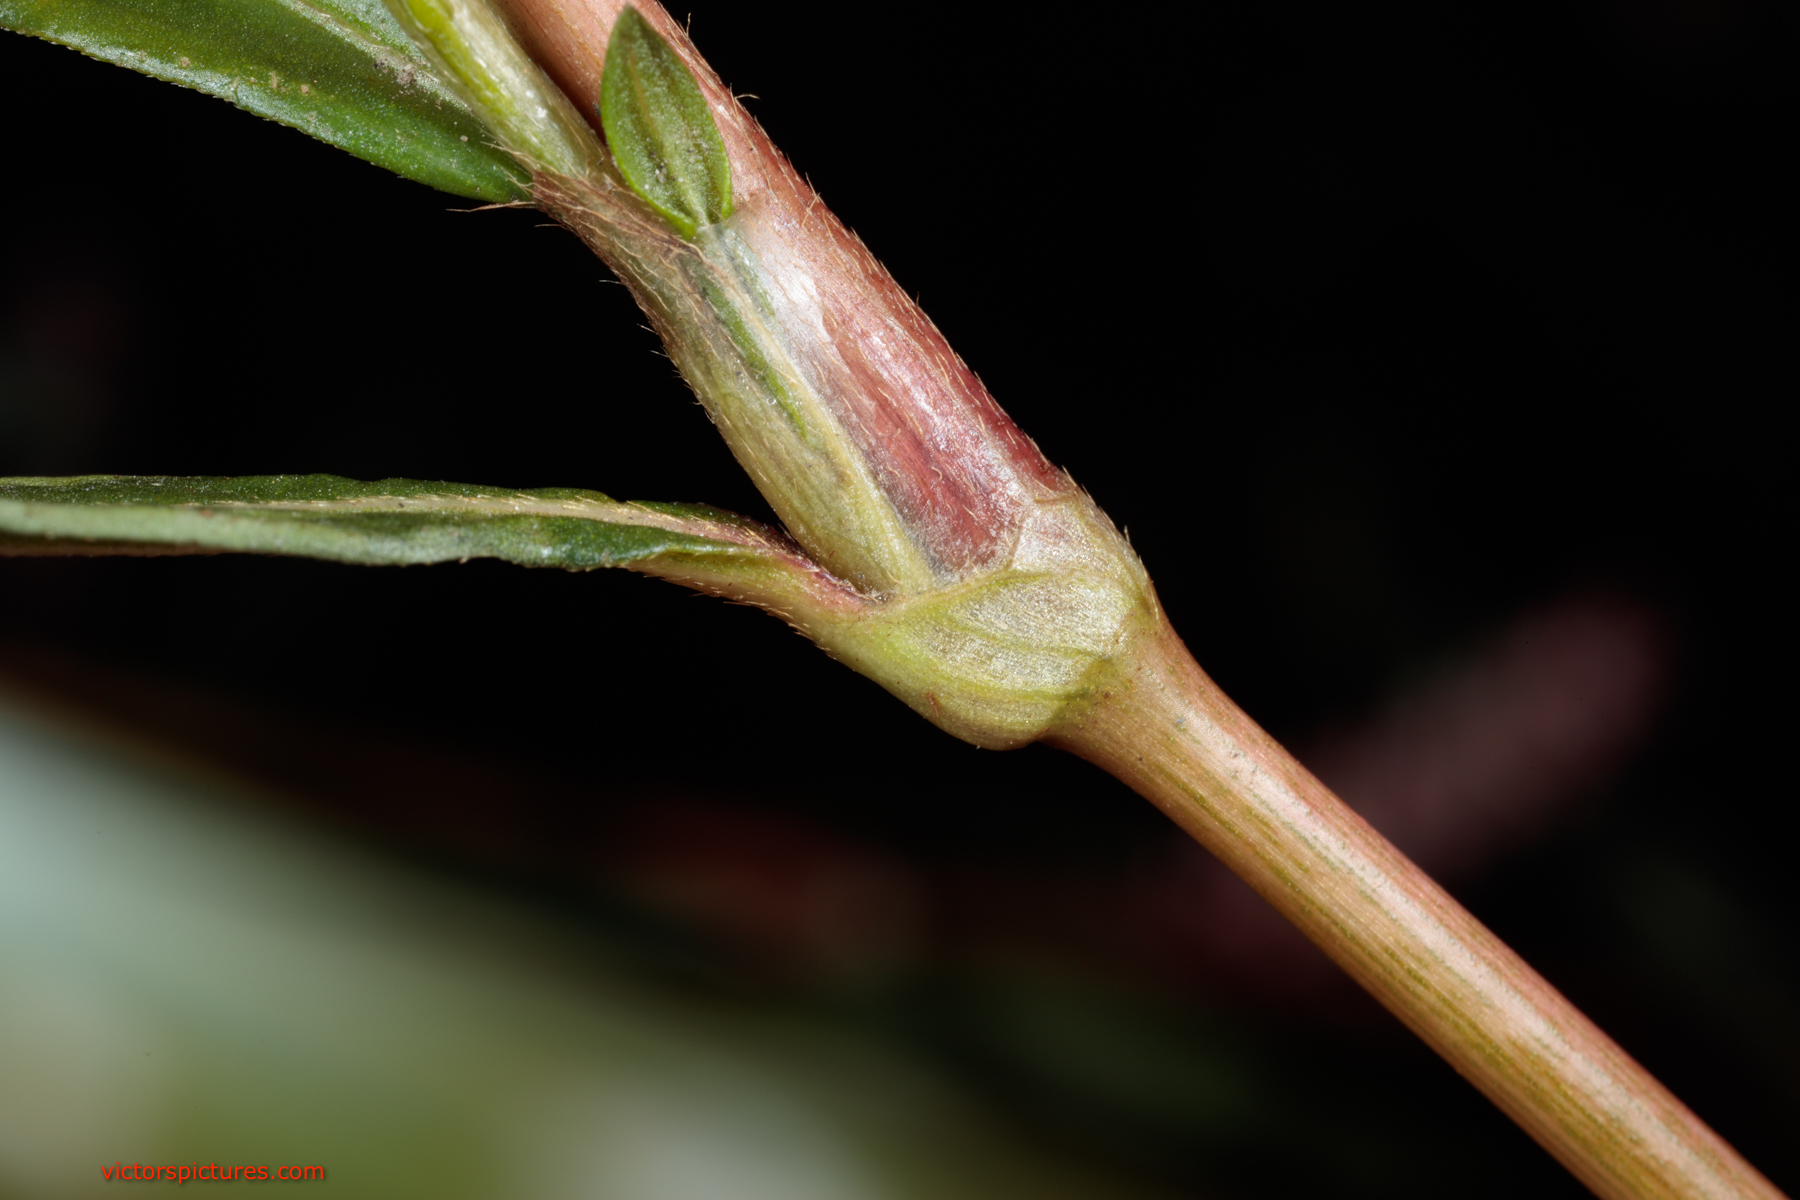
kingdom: Plantae
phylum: Tracheophyta
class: Magnoliopsida
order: Caryophyllales
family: Polygonaceae
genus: Persicaria
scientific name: Persicaria hydropiperoides
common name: Swamp smartweed
